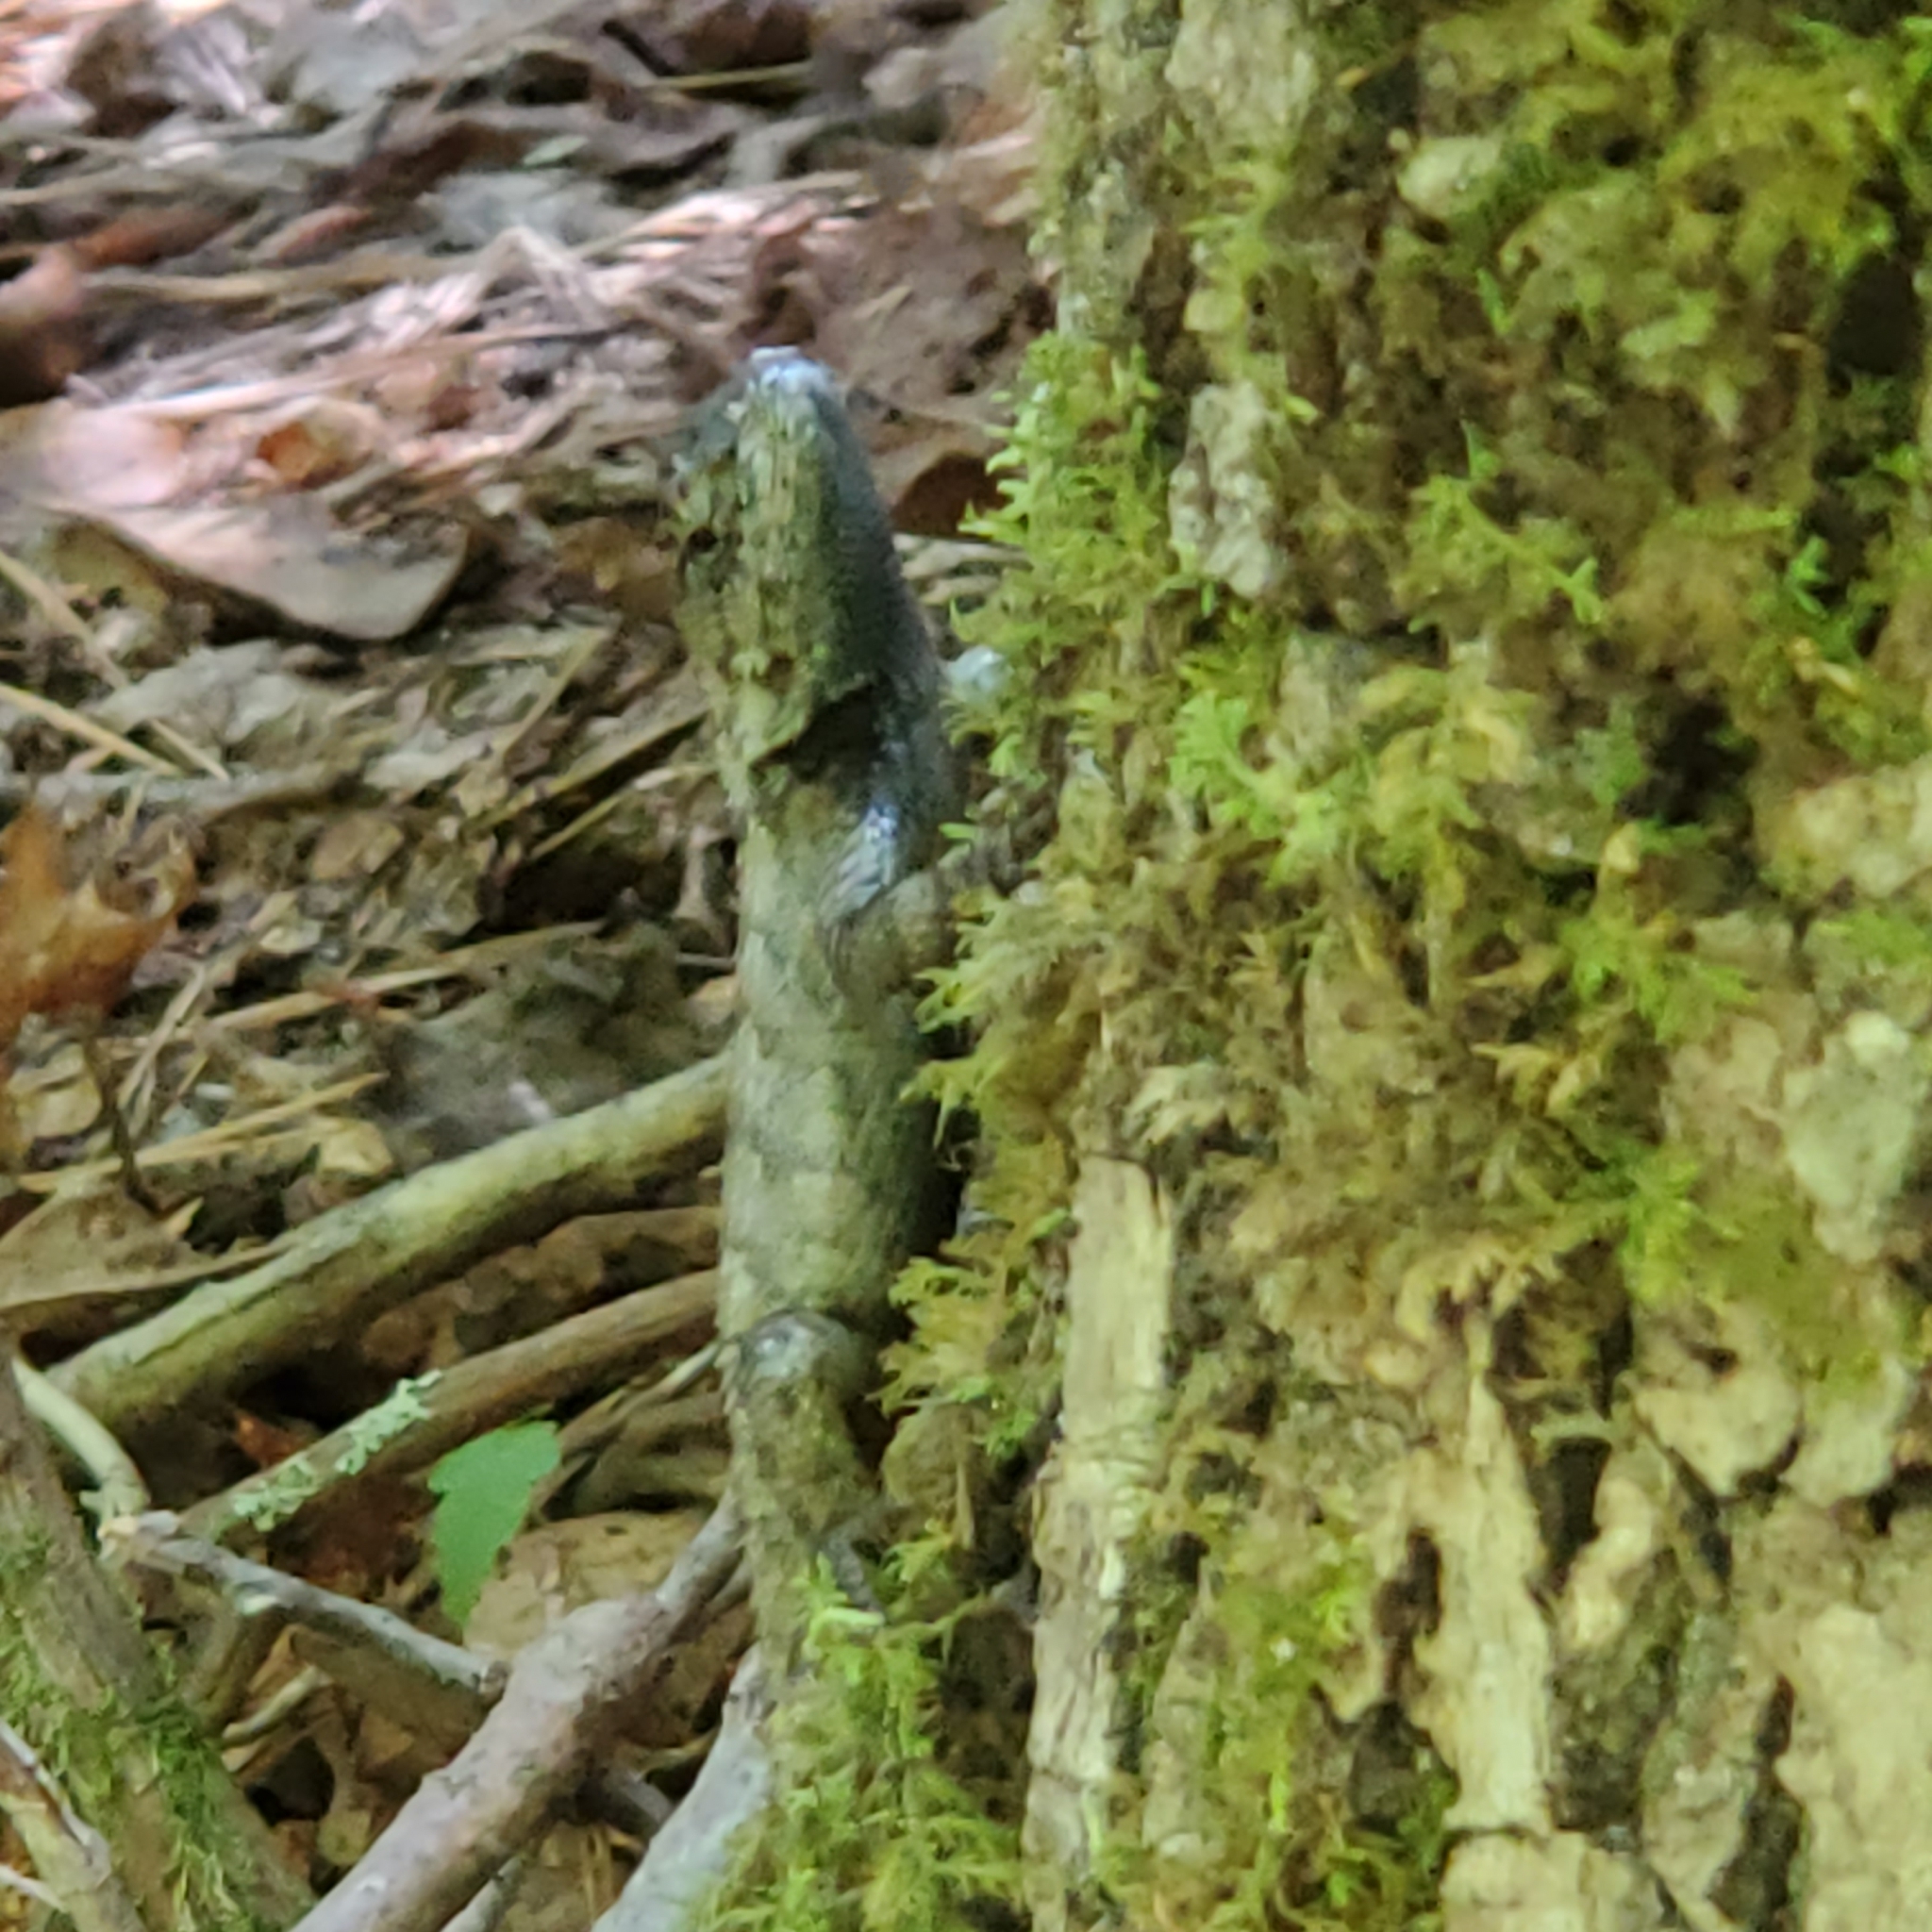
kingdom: Animalia
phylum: Chordata
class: Squamata
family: Phrynosomatidae
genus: Sceloporus
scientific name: Sceloporus undulatus
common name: Eastern fence lizard
